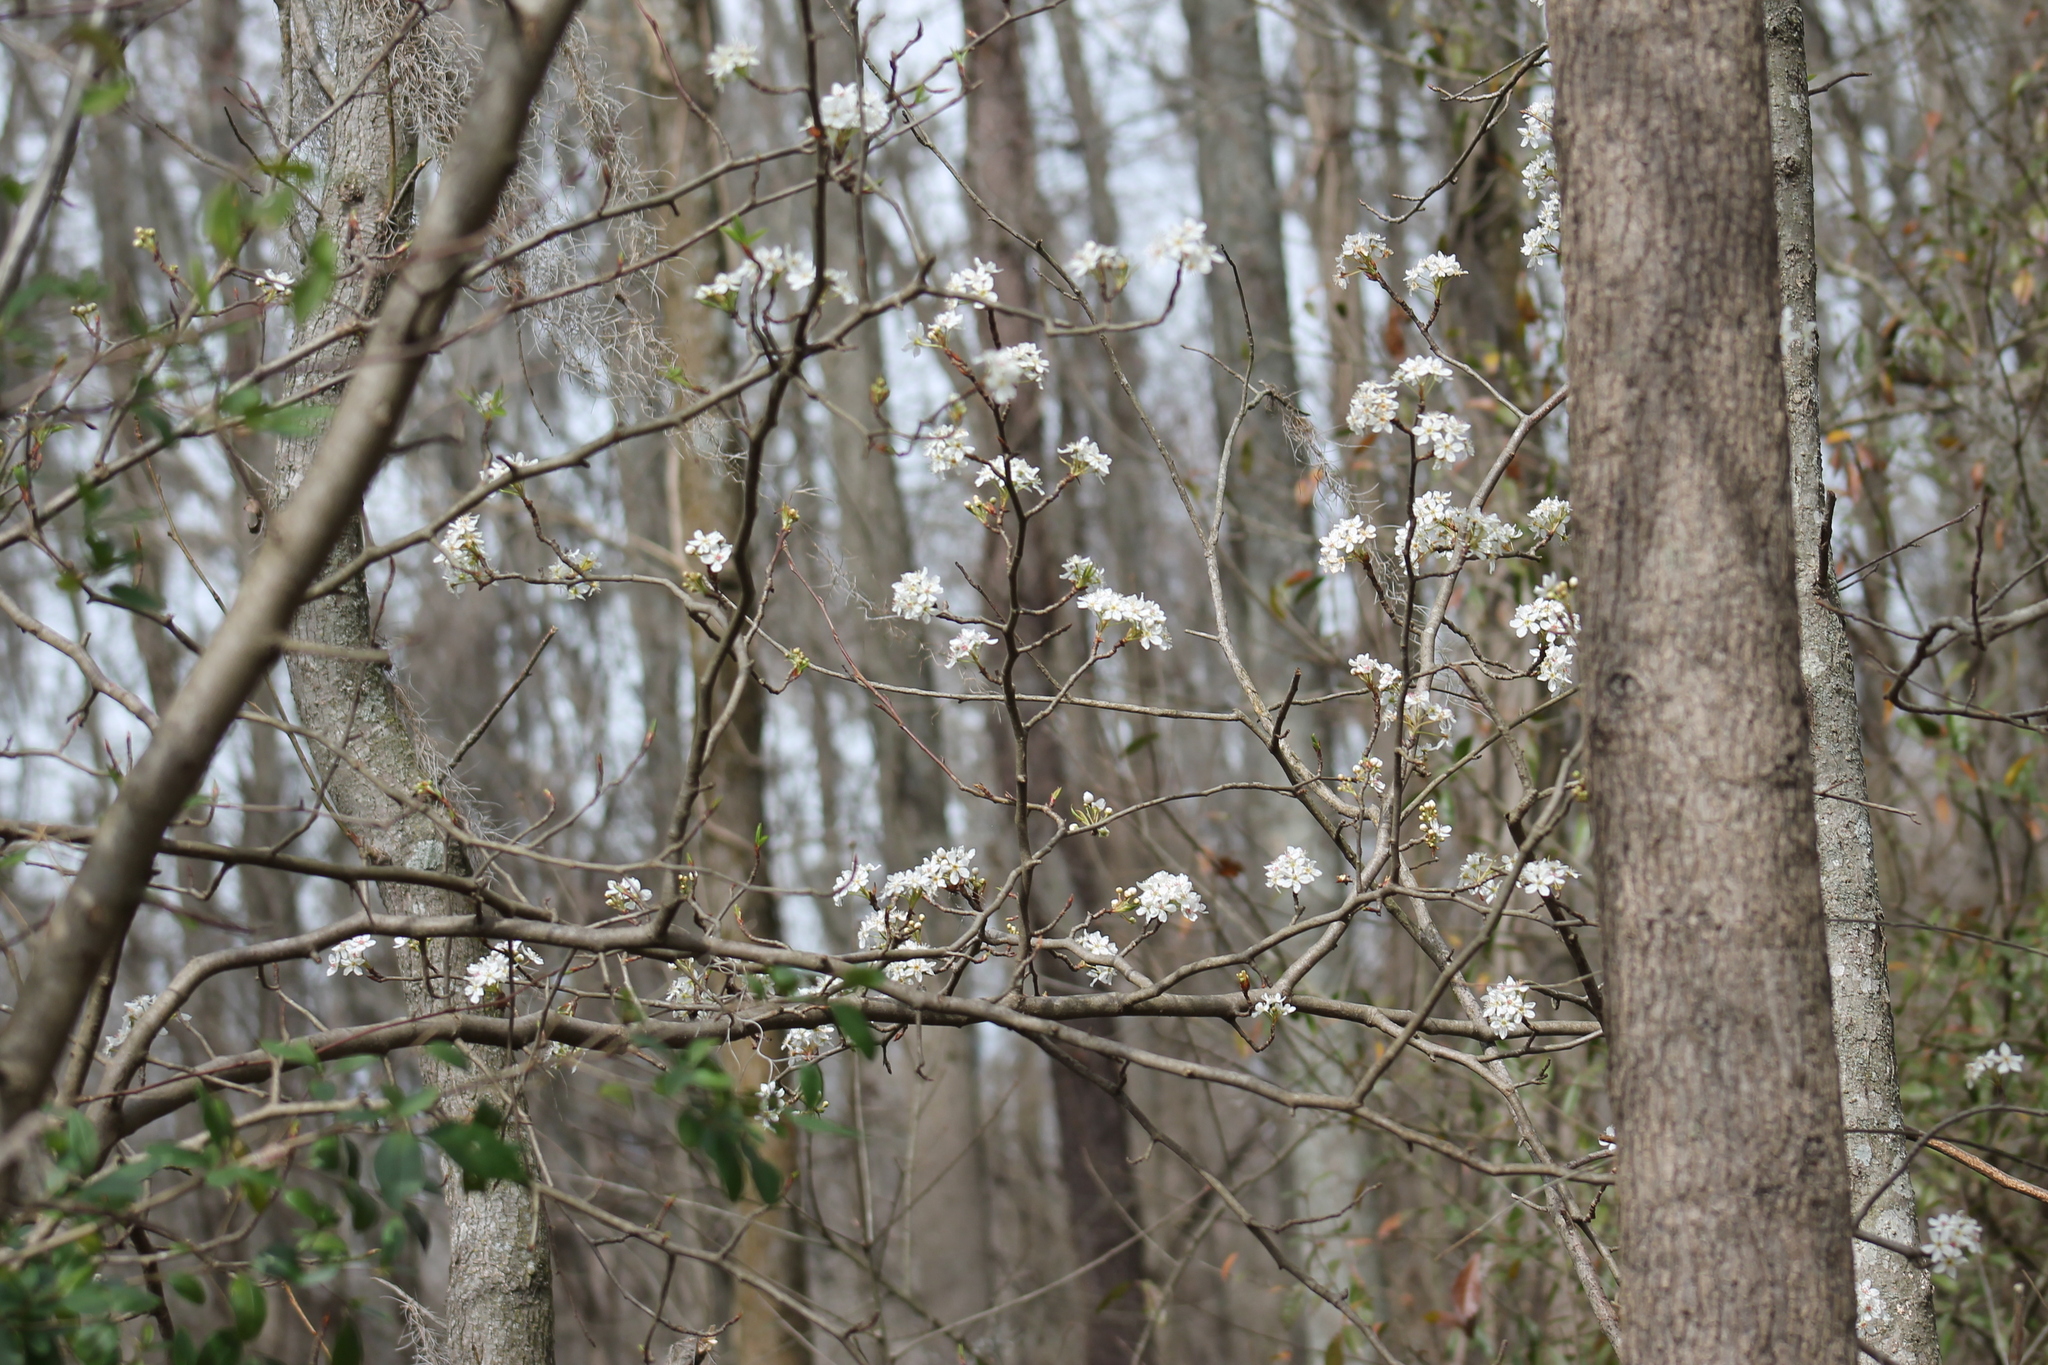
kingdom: Plantae
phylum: Tracheophyta
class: Magnoliopsida
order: Rosales
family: Rosaceae
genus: Pyrus
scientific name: Pyrus calleryana
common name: Callery pear
